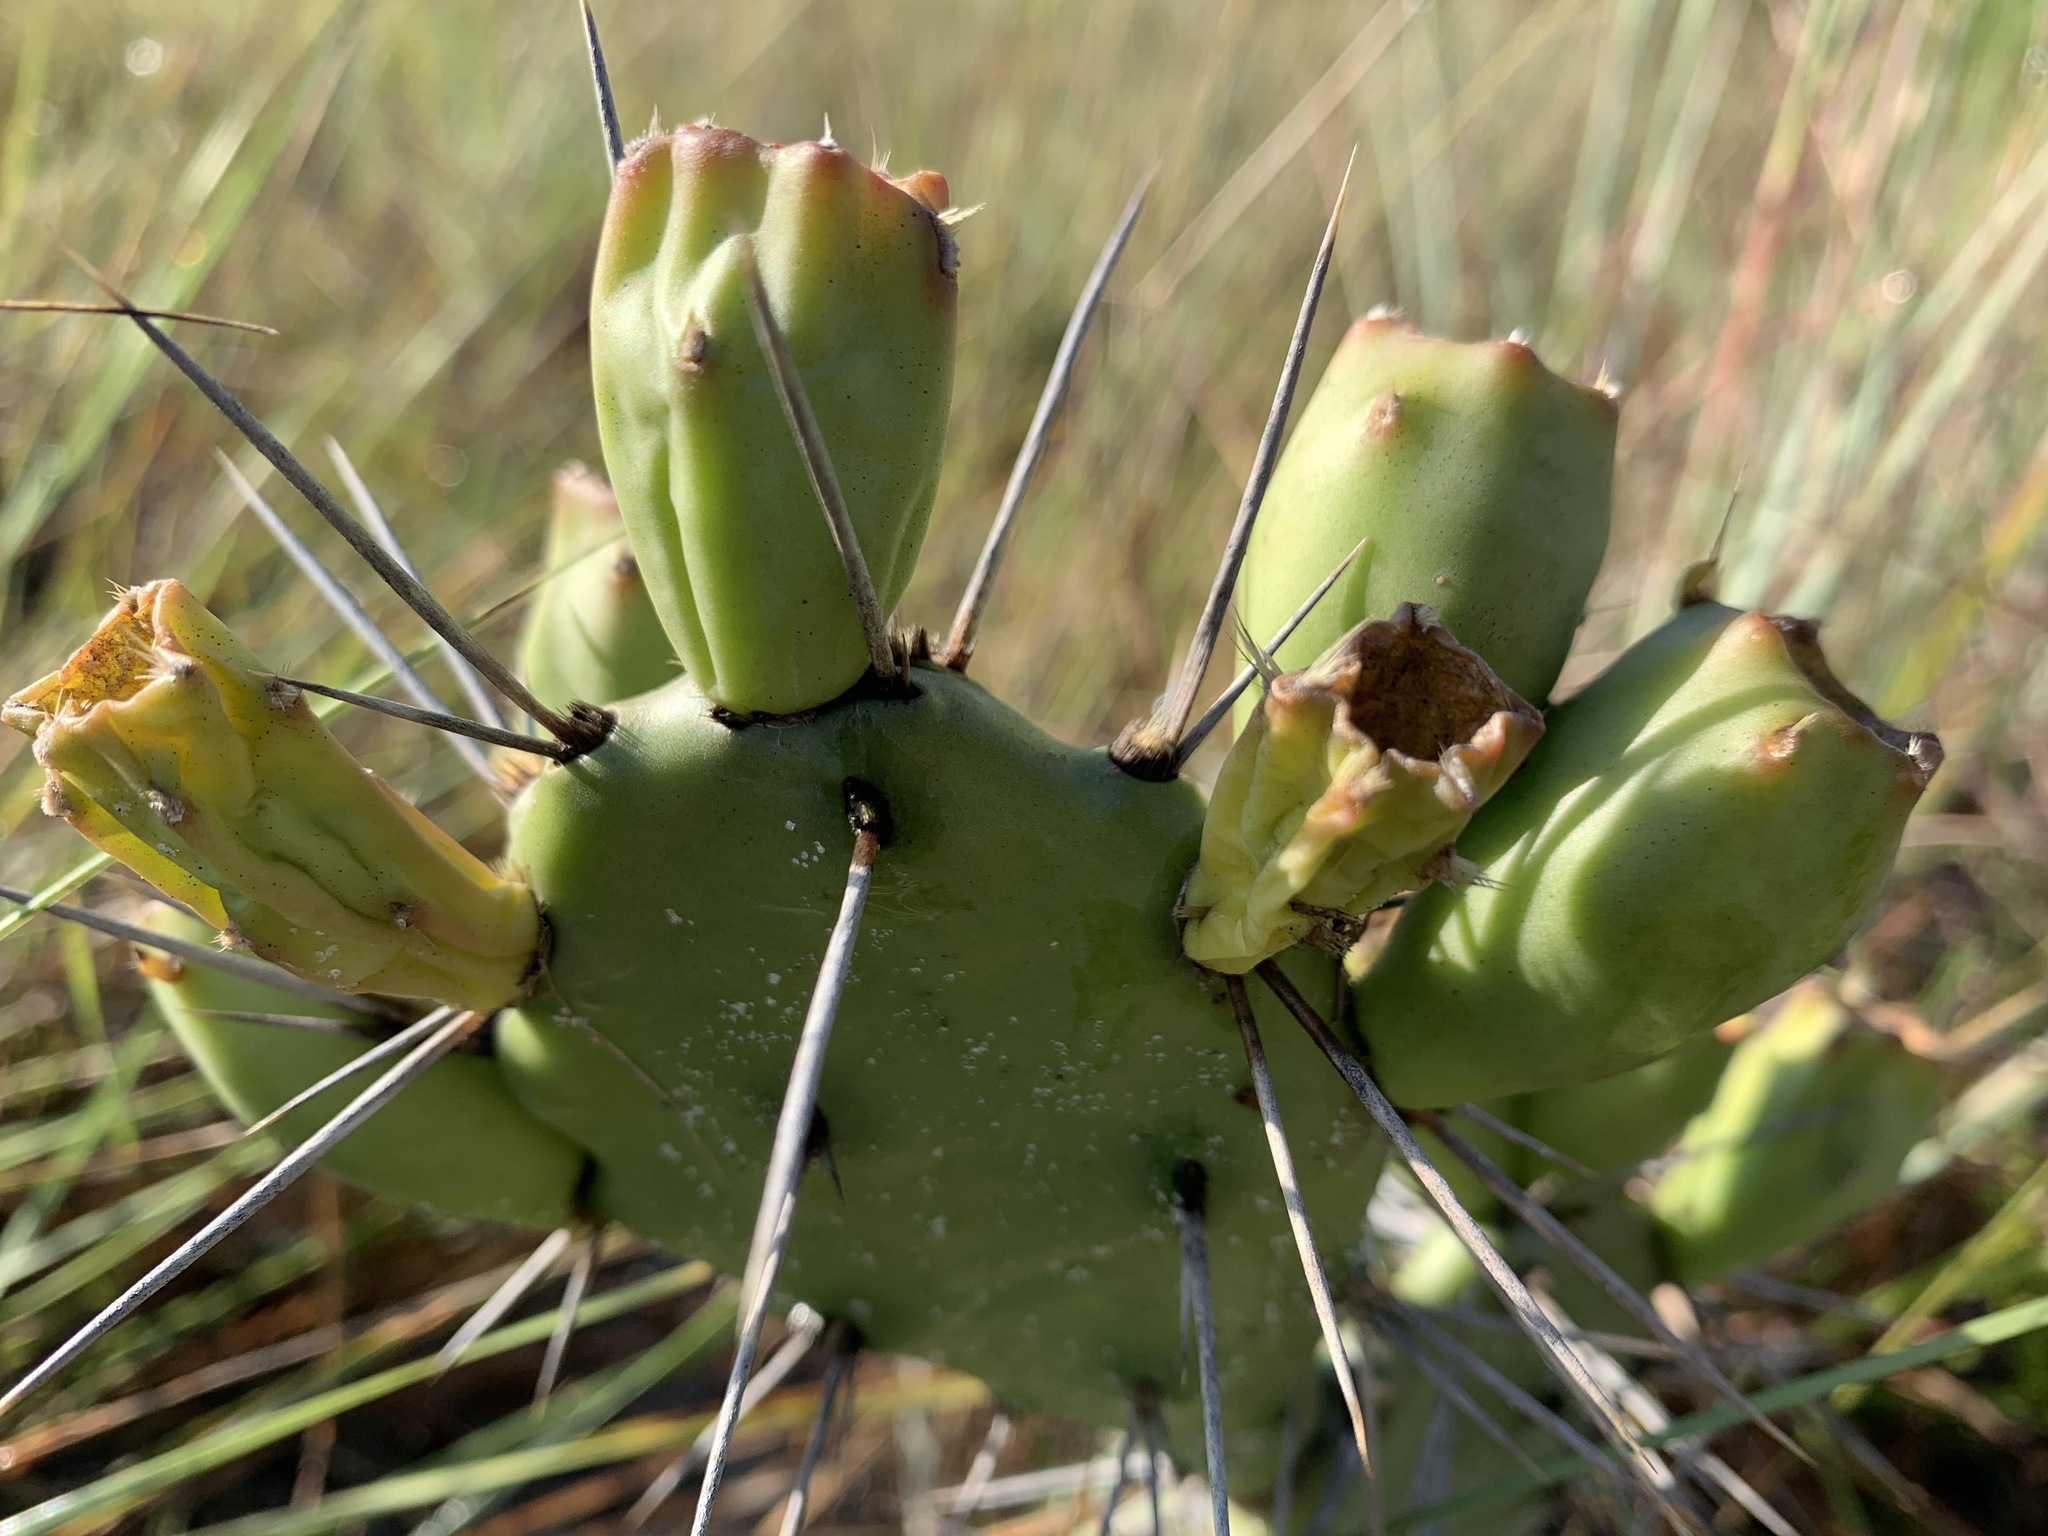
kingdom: Plantae
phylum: Tracheophyta
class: Magnoliopsida
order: Caryophyllales
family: Cactaceae
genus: Opuntia
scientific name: Opuntia austrina
